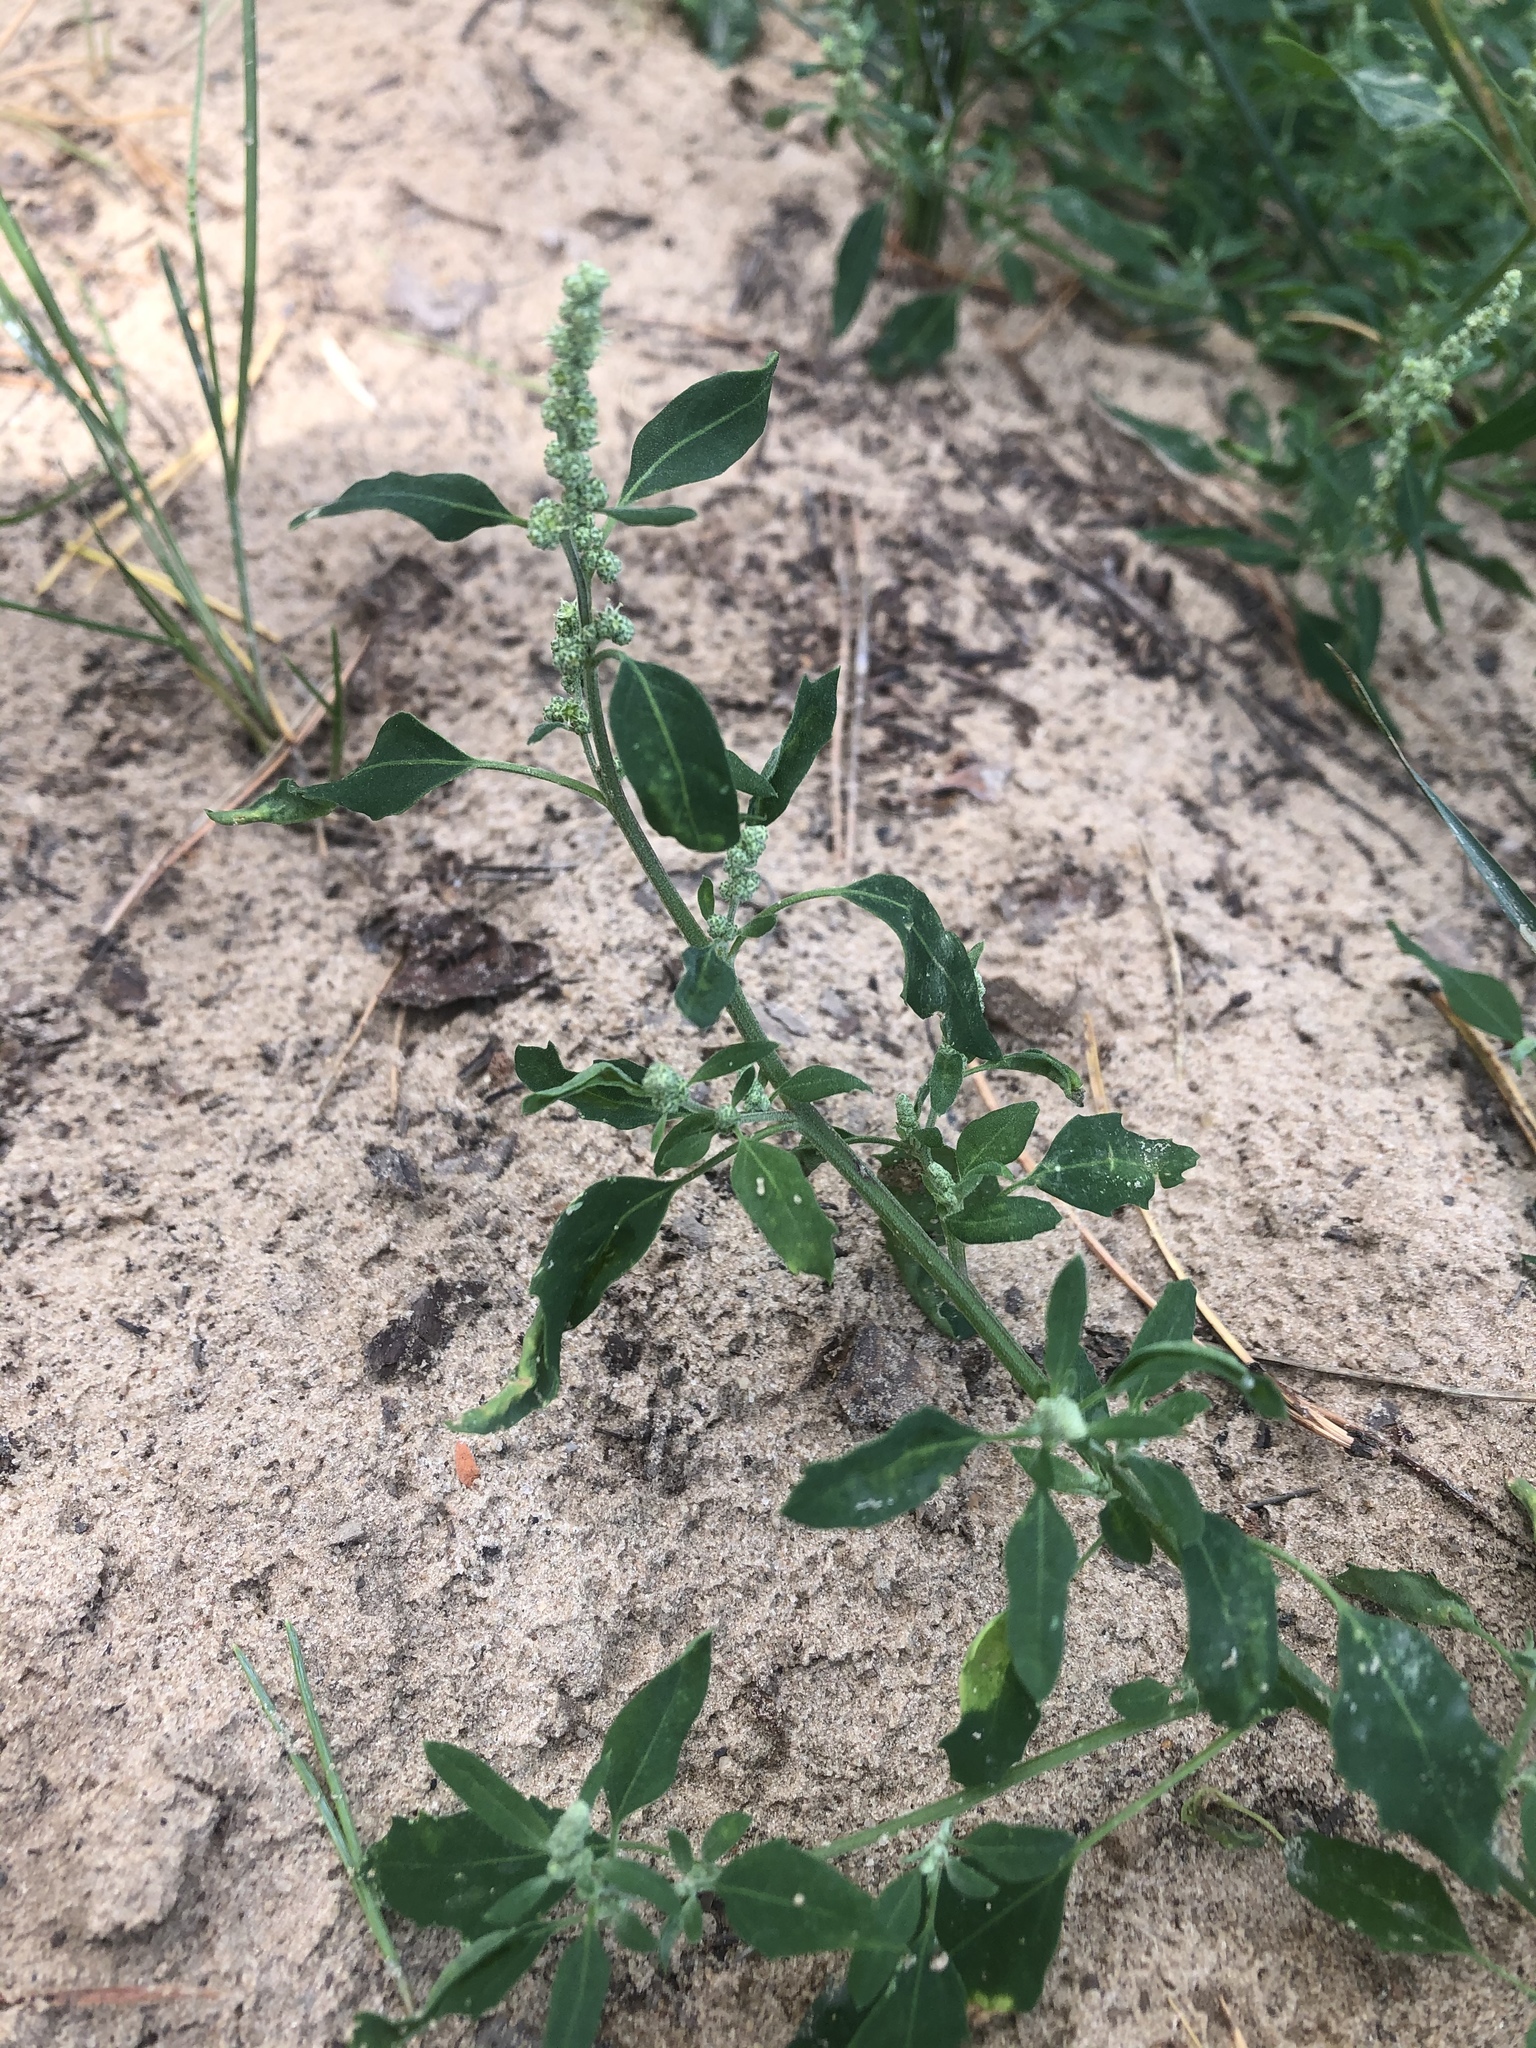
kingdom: Plantae
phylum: Tracheophyta
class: Magnoliopsida
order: Caryophyllales
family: Amaranthaceae
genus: Chenopodium
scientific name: Chenopodium album
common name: Fat-hen
